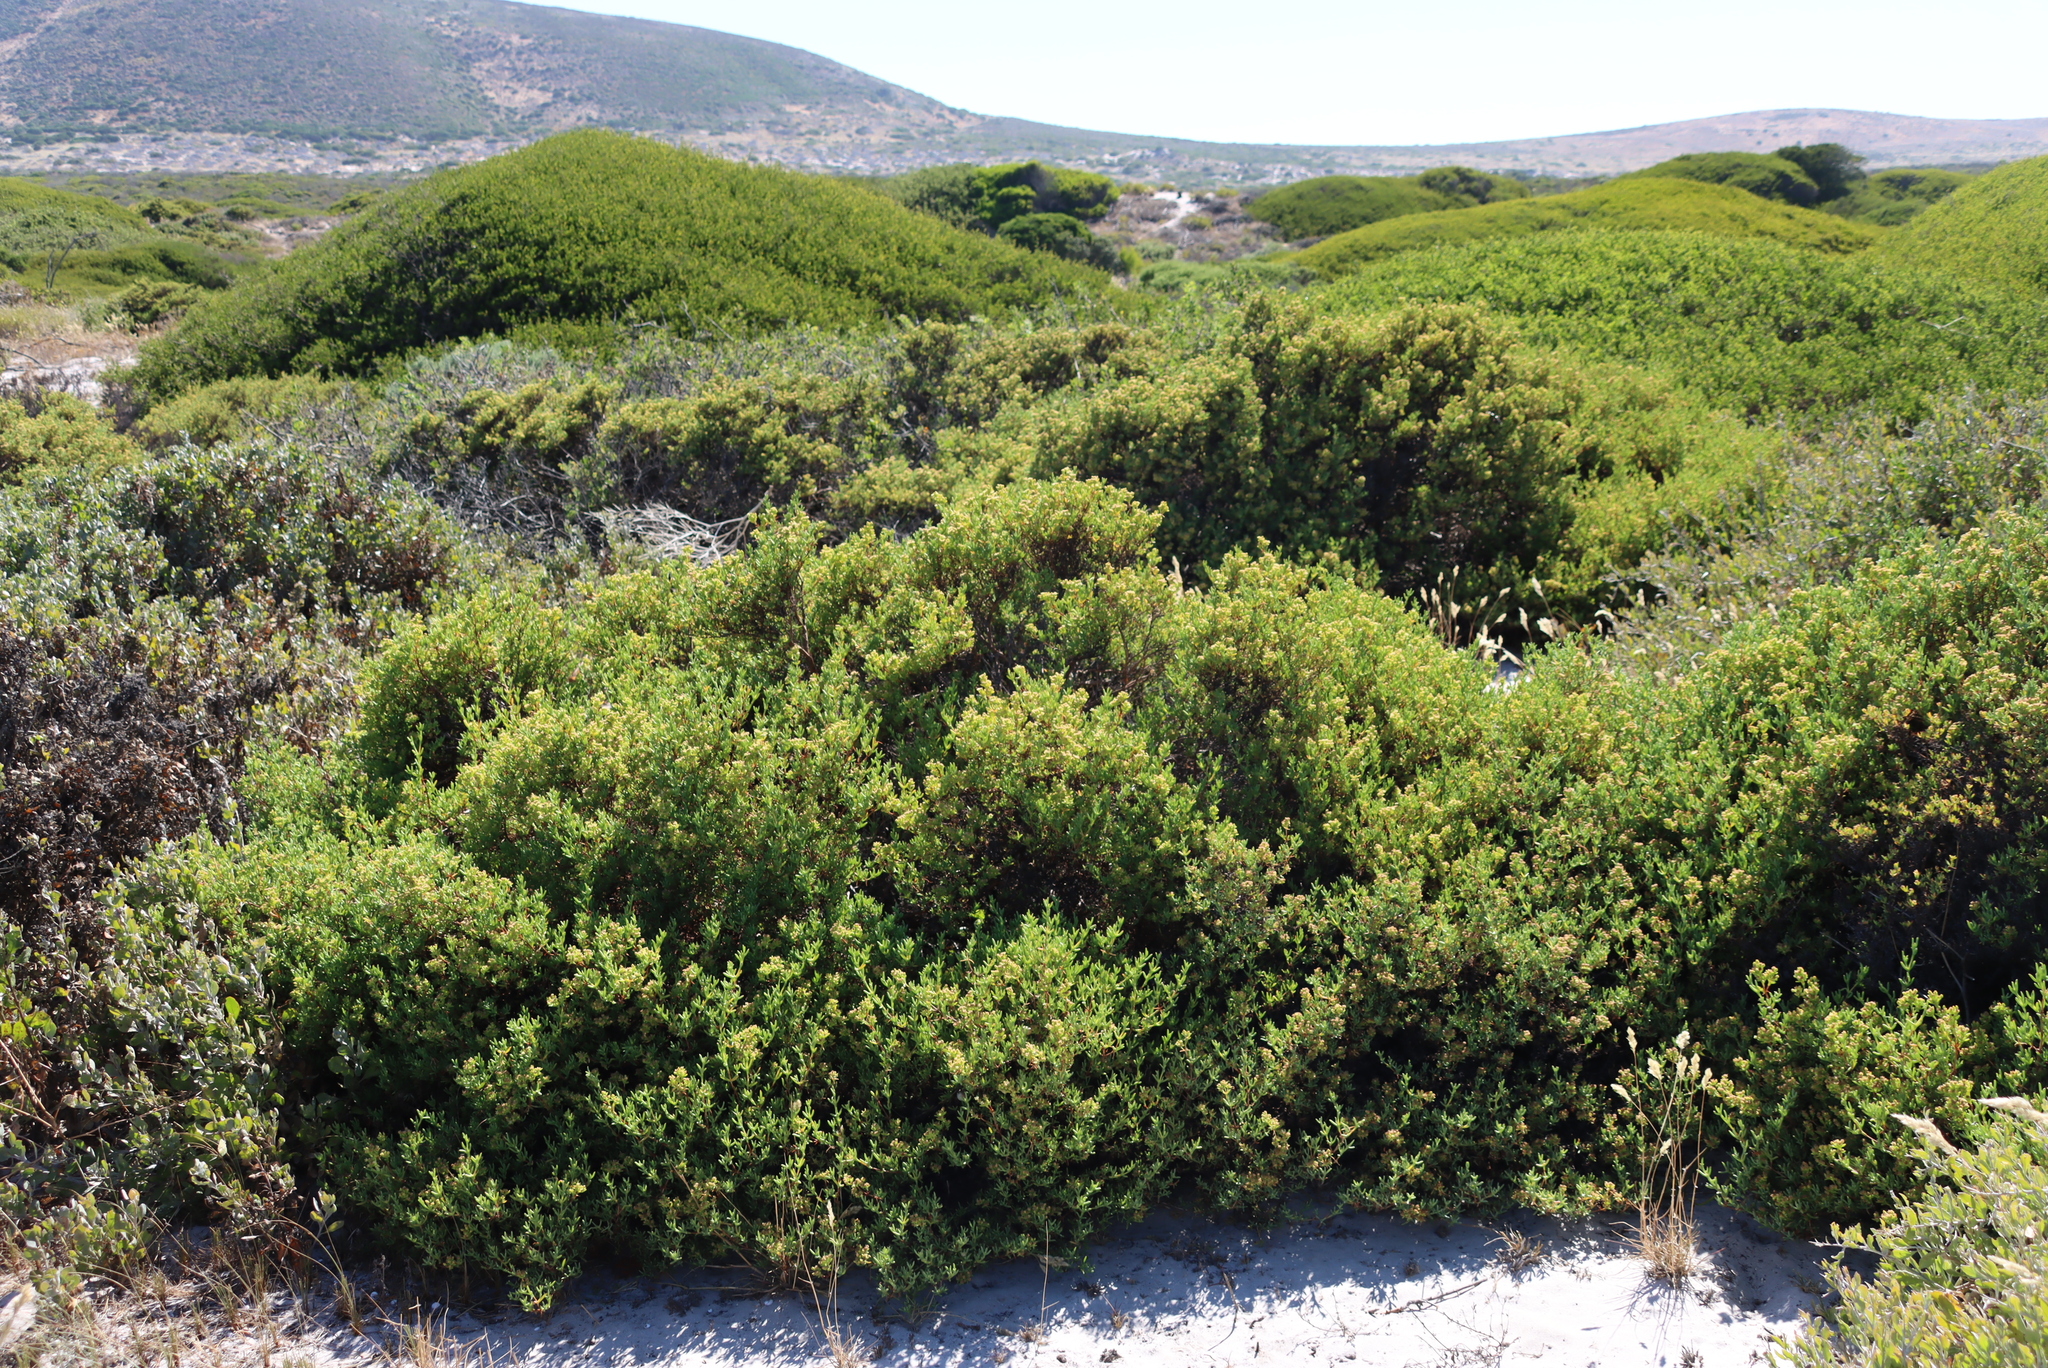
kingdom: Plantae
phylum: Tracheophyta
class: Magnoliopsida
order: Caryophyllales
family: Aizoaceae
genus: Ruschia
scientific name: Ruschia misera
